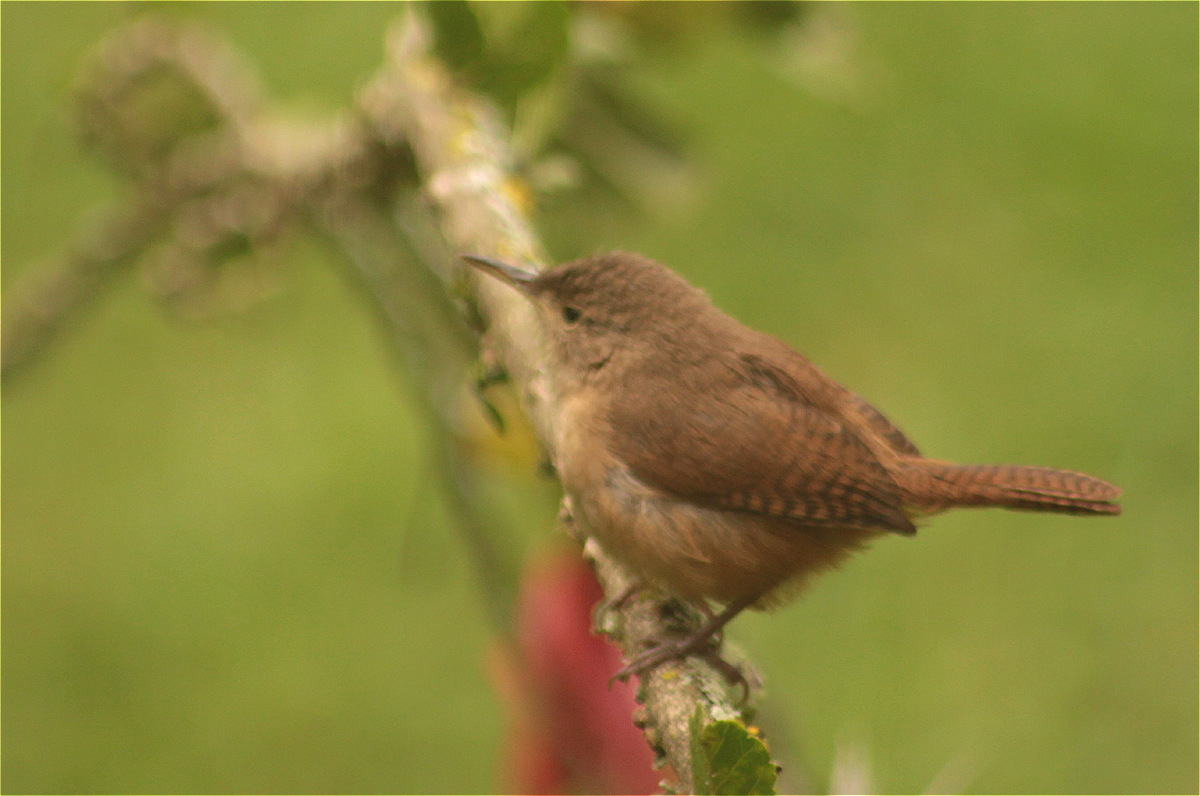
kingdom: Animalia
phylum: Chordata
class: Aves
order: Passeriformes
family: Troglodytidae
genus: Troglodytes
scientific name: Troglodytes aedon
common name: House wren
